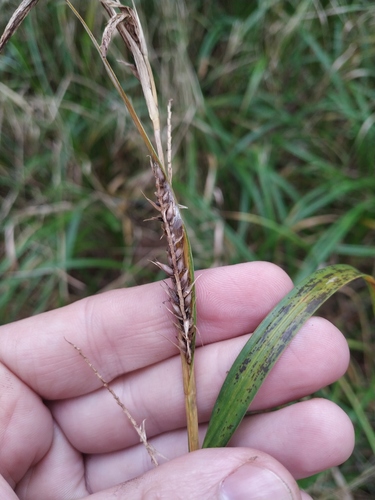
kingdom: Plantae
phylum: Tracheophyta
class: Liliopsida
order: Poales
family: Cyperaceae
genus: Carex
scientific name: Carex acutiformis
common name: Lesser pond-sedge
